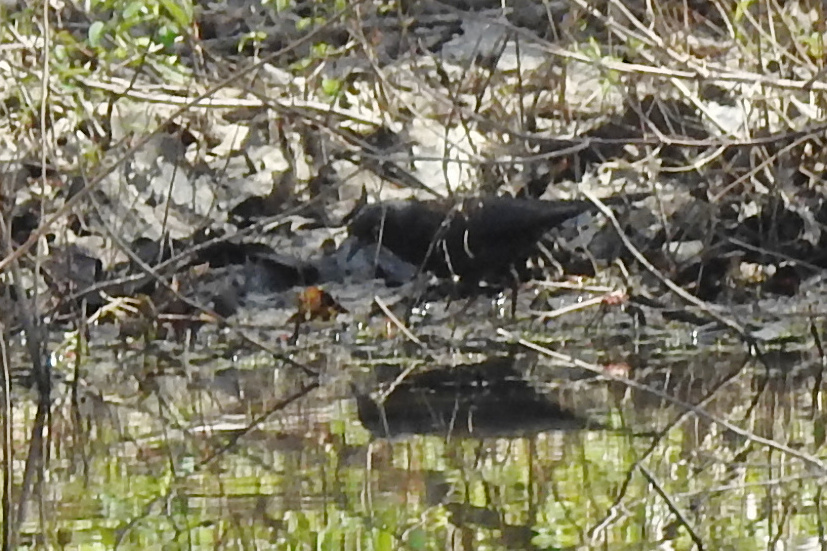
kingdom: Animalia
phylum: Chordata
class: Aves
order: Passeriformes
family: Icteridae
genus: Euphagus
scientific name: Euphagus carolinus
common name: Rusty blackbird
